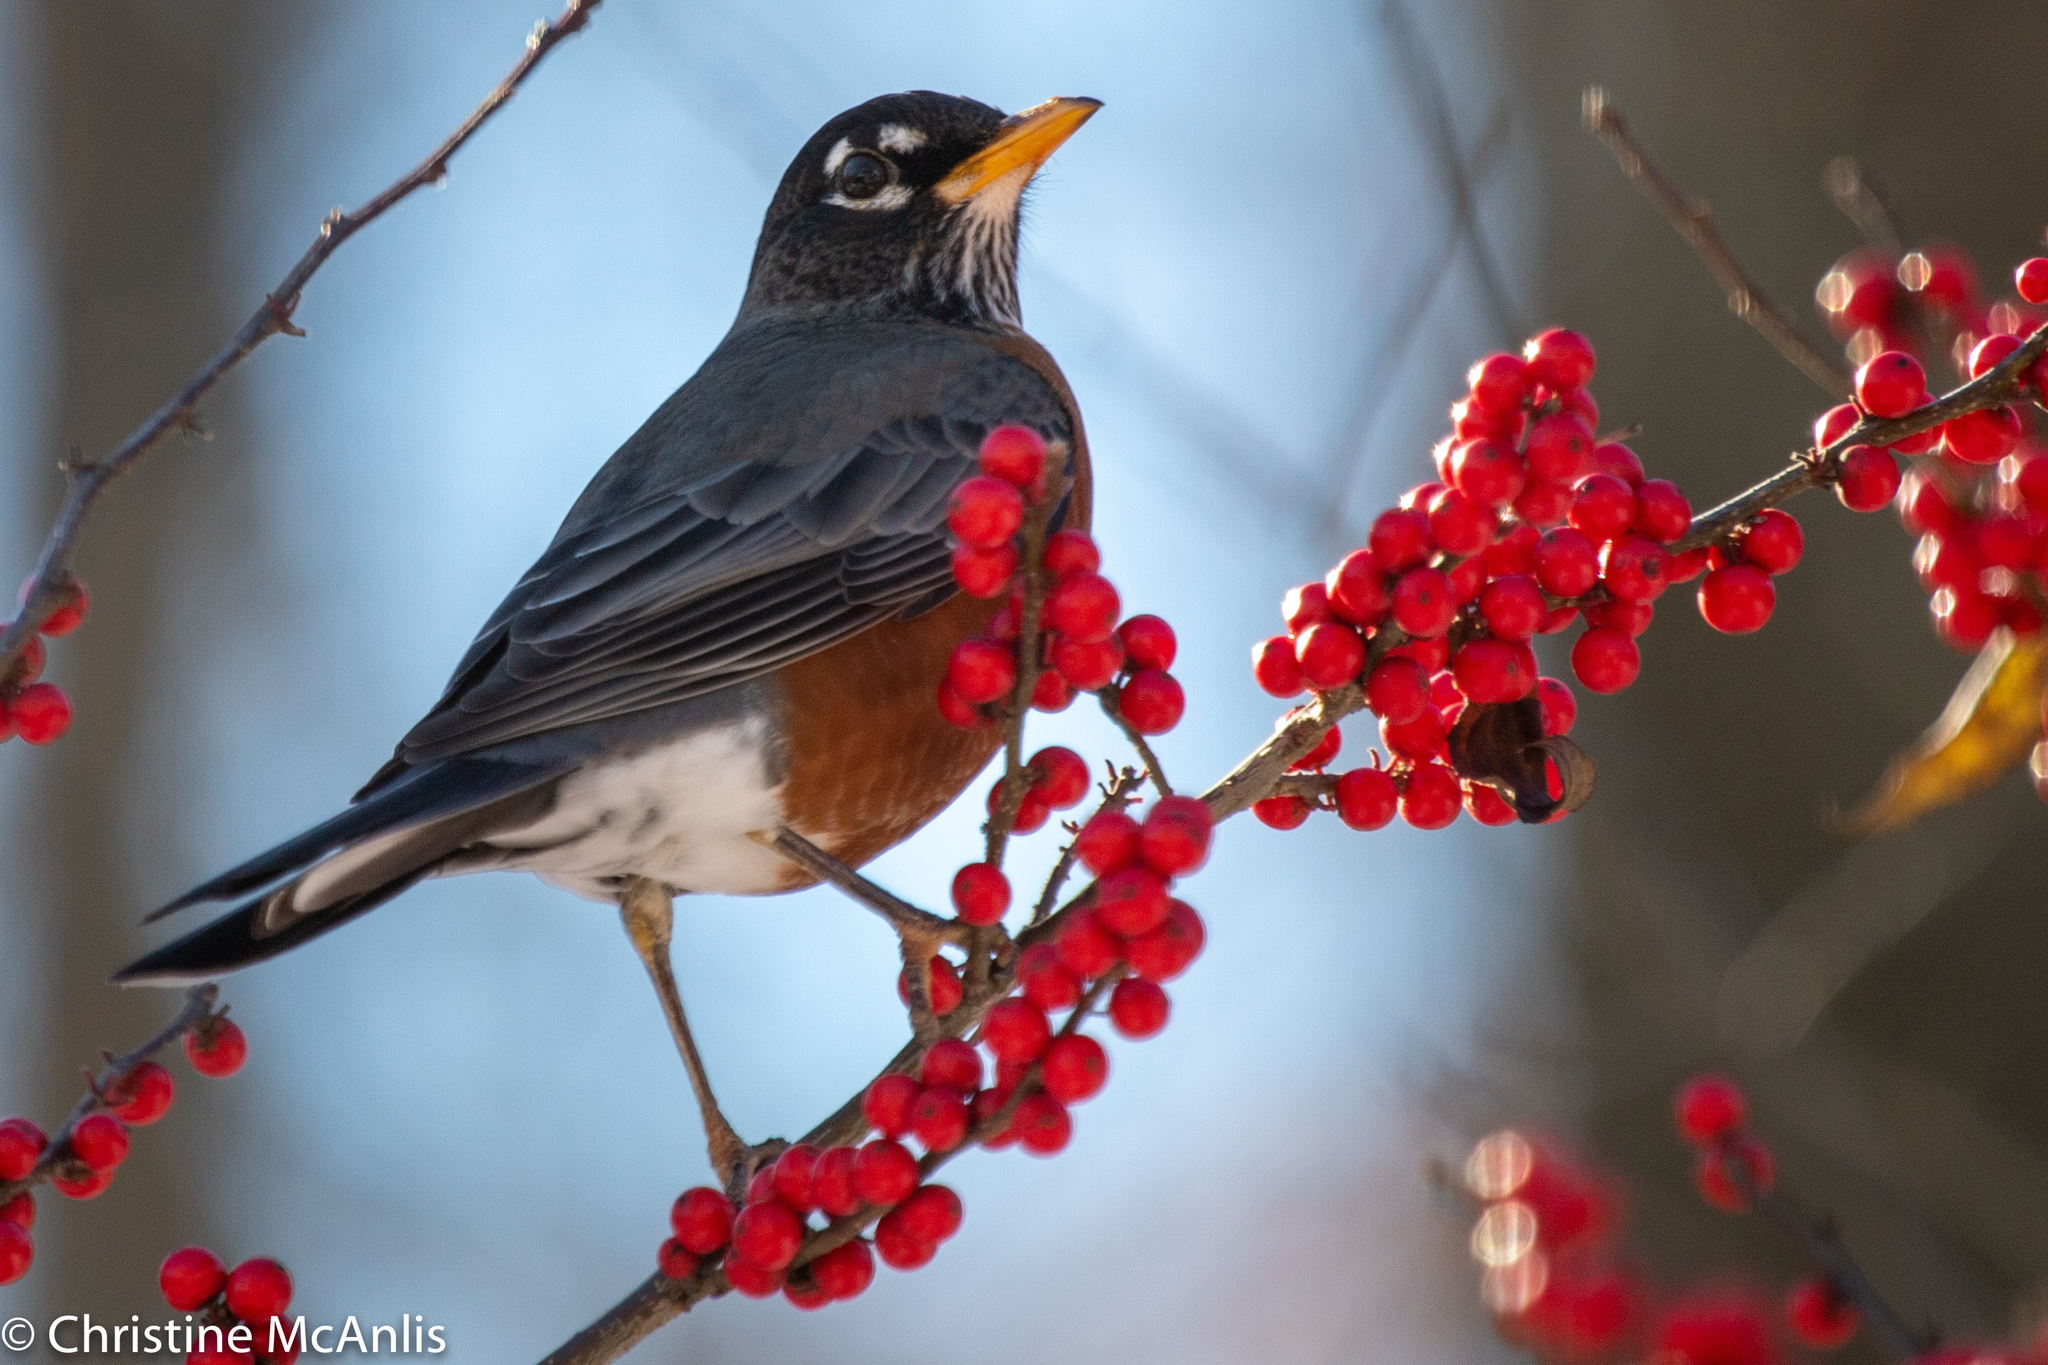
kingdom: Animalia
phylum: Chordata
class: Aves
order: Passeriformes
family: Turdidae
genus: Turdus
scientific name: Turdus migratorius
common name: American robin
